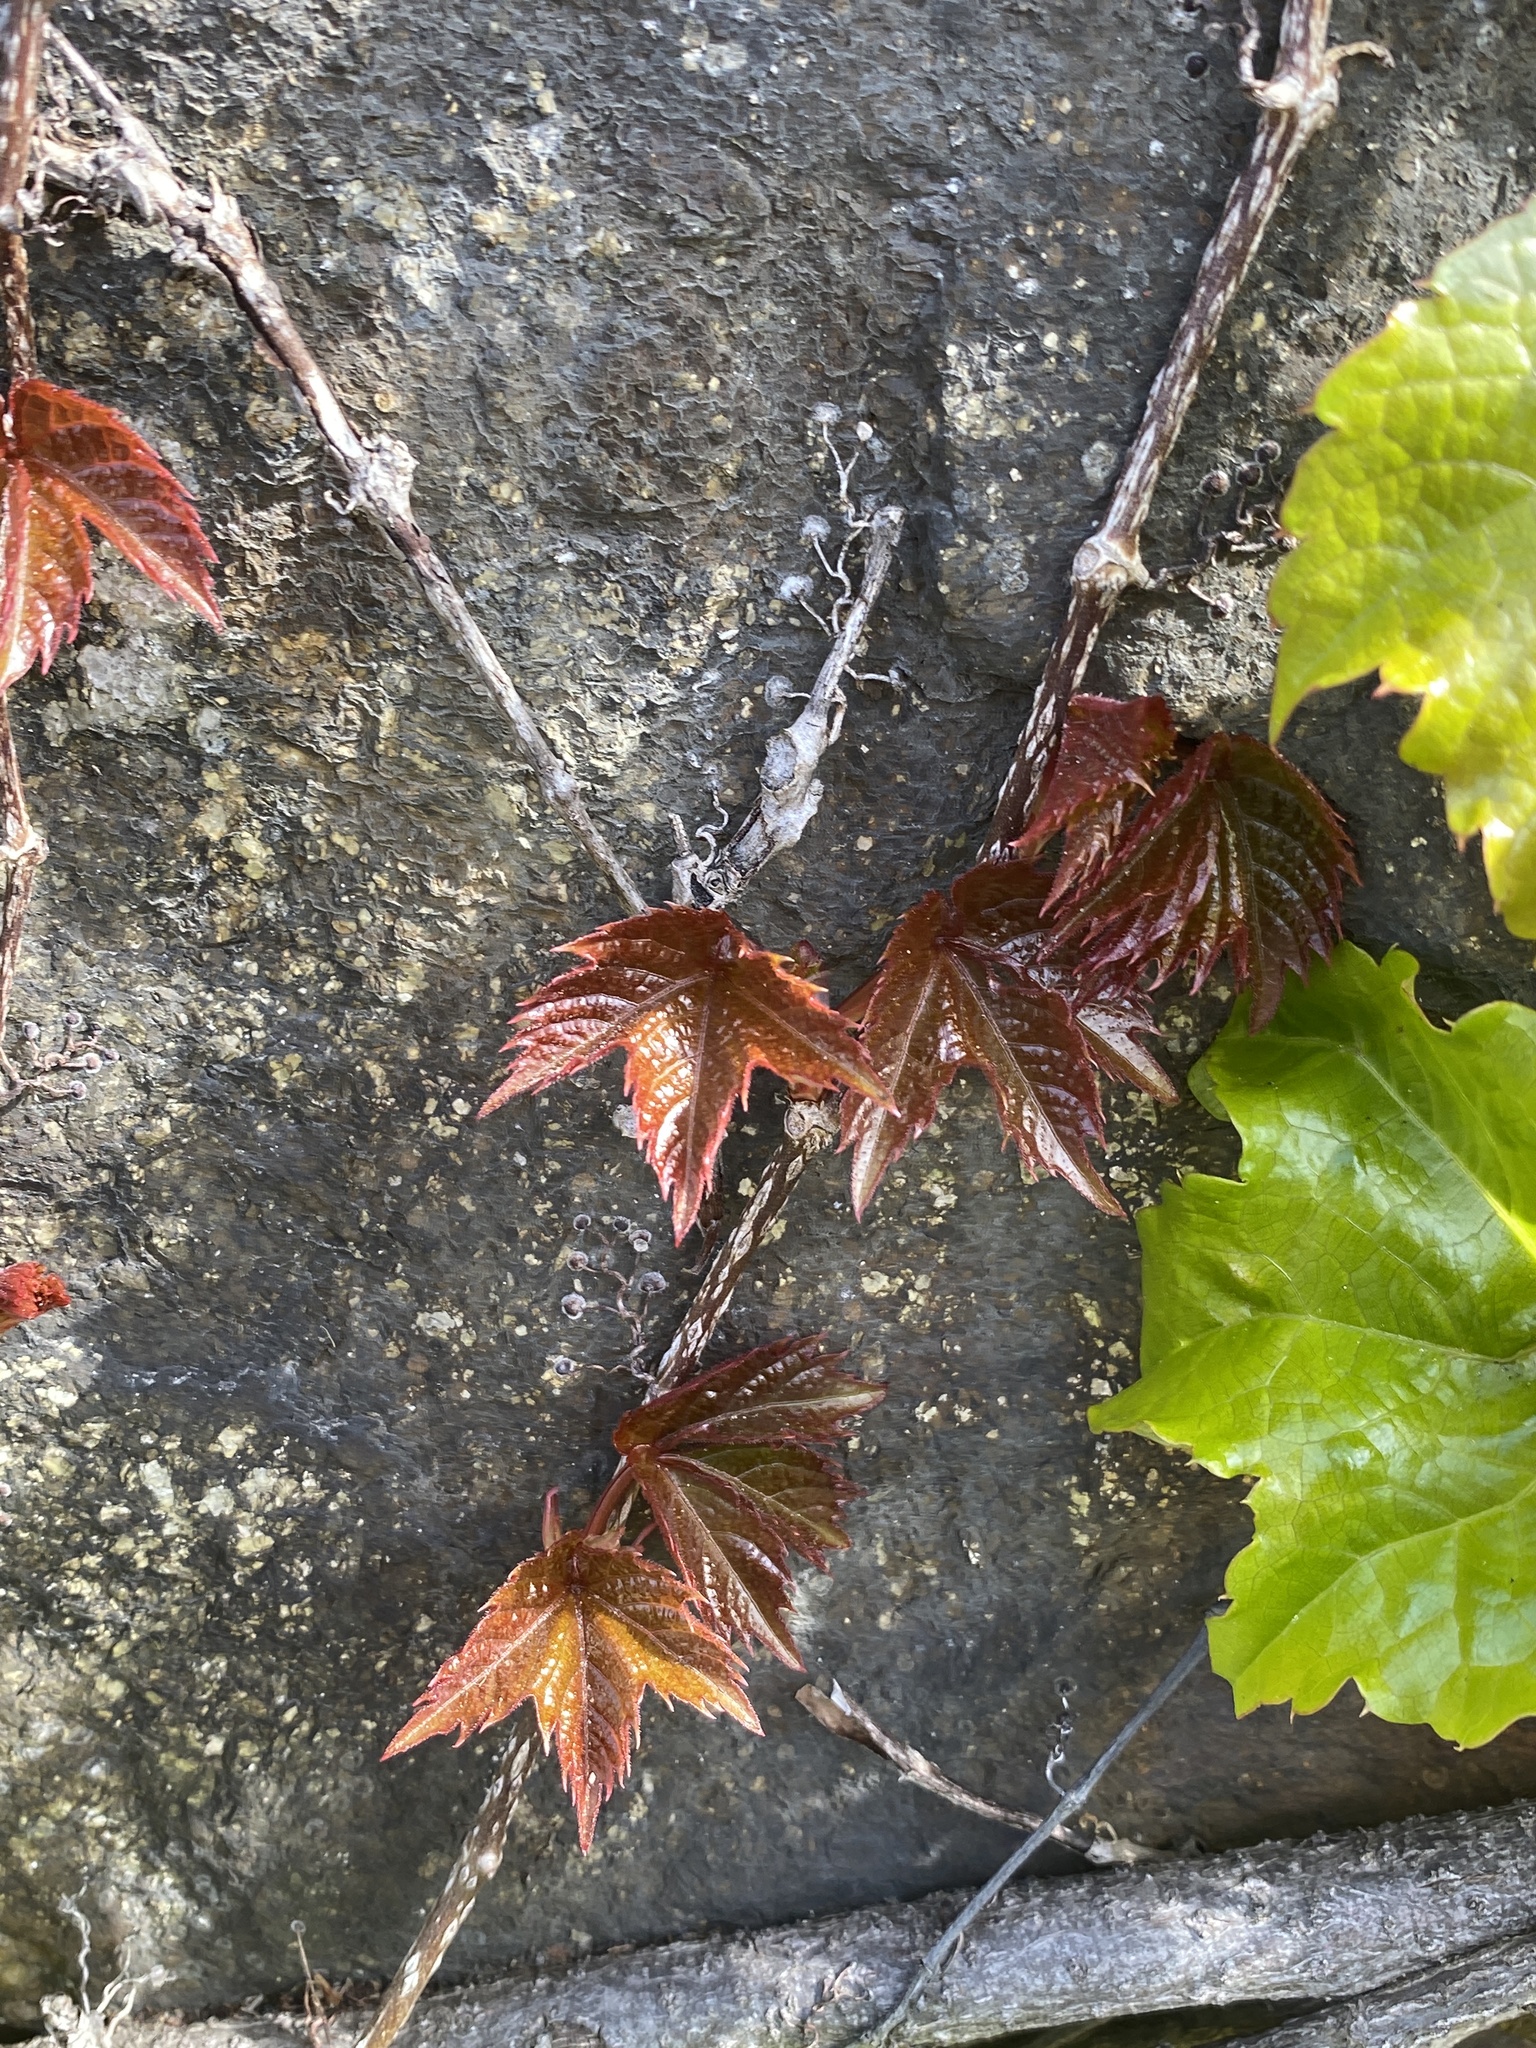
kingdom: Plantae
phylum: Tracheophyta
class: Magnoliopsida
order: Vitales
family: Vitaceae
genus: Parthenocissus
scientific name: Parthenocissus tricuspidata
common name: Boston ivy
